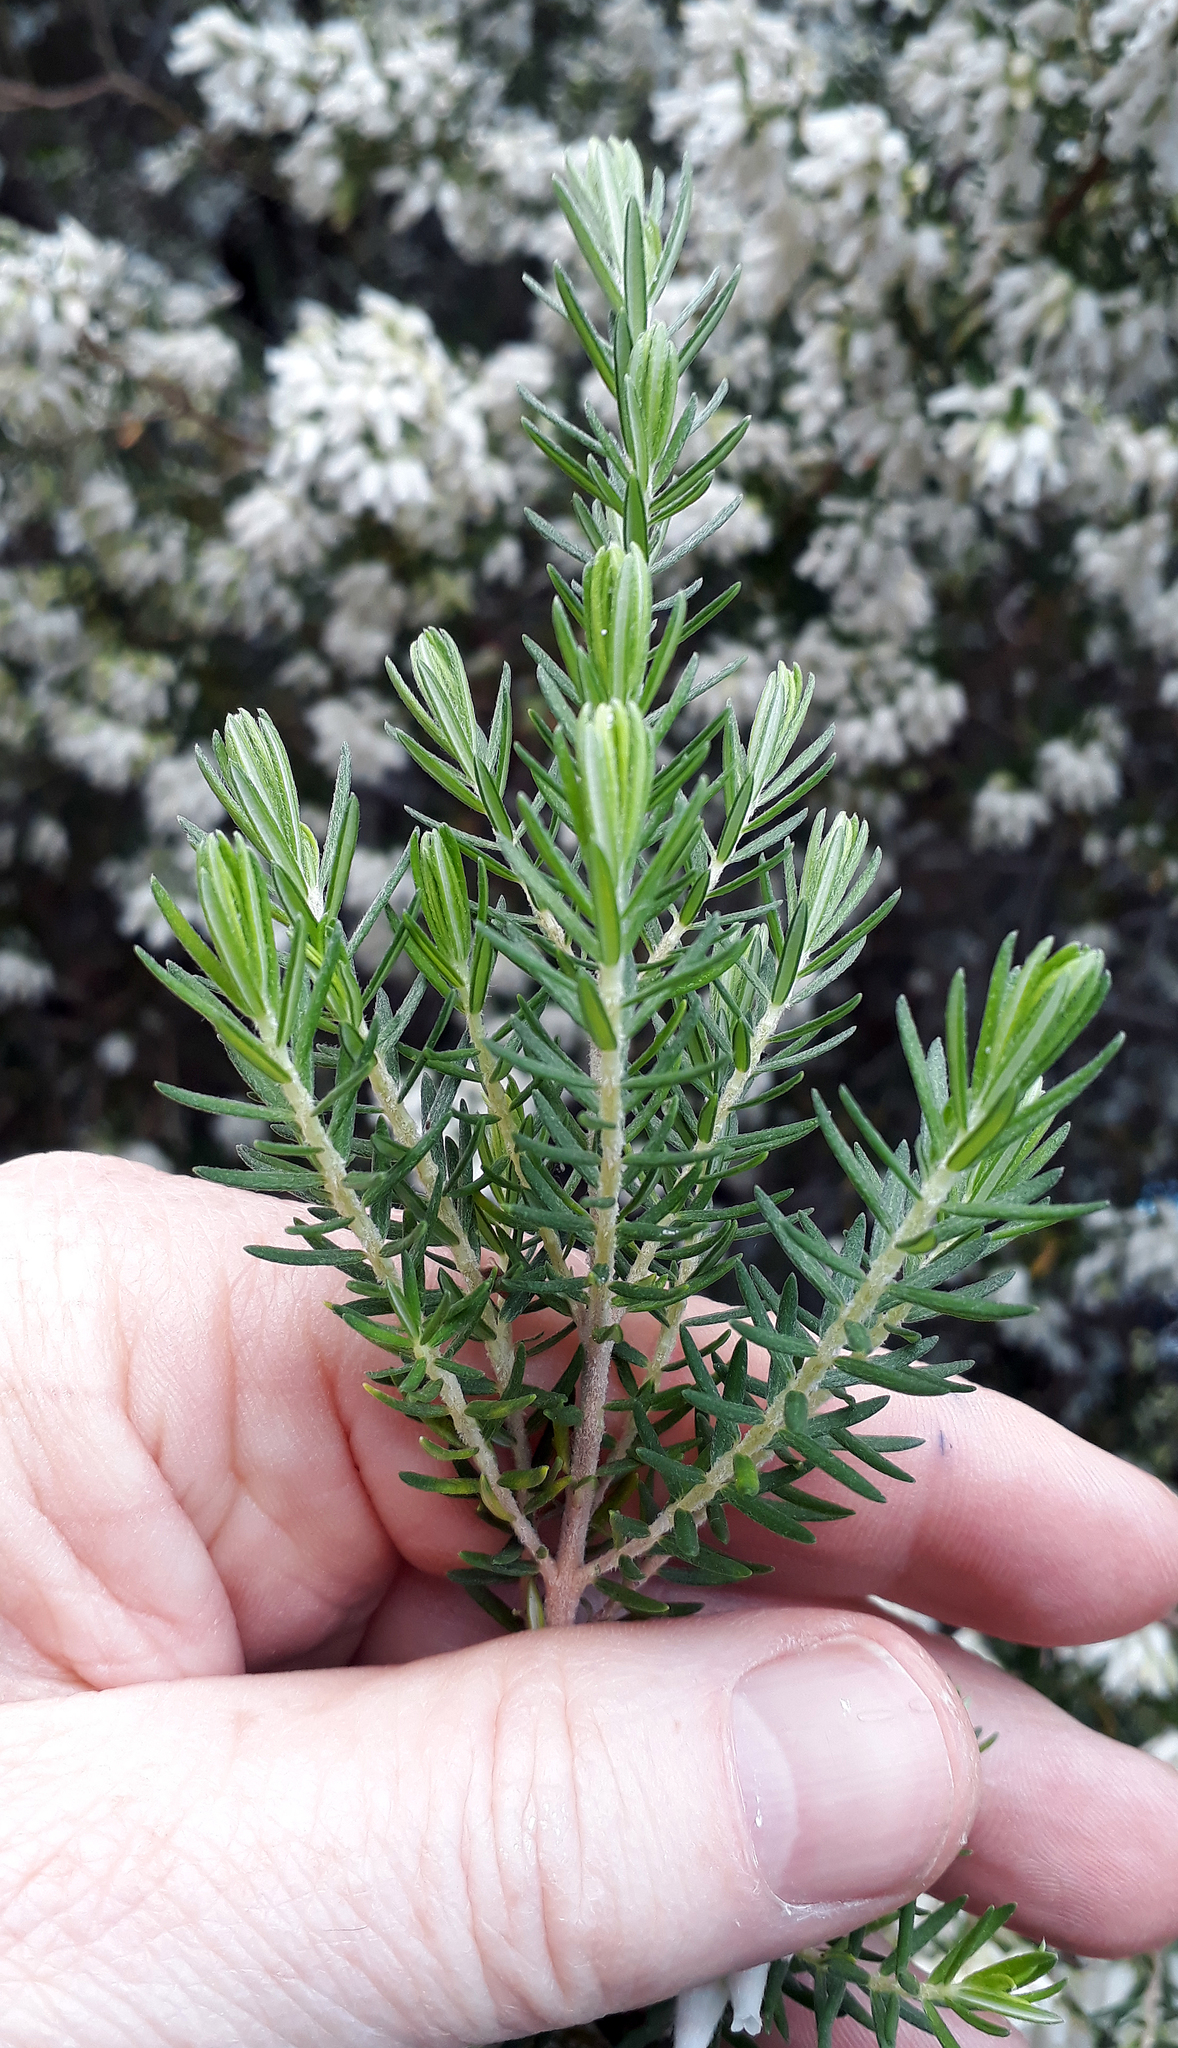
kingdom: Plantae
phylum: Tracheophyta
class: Magnoliopsida
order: Ericales
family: Ericaceae
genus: Erica
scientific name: Erica arborea
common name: Tree heath
